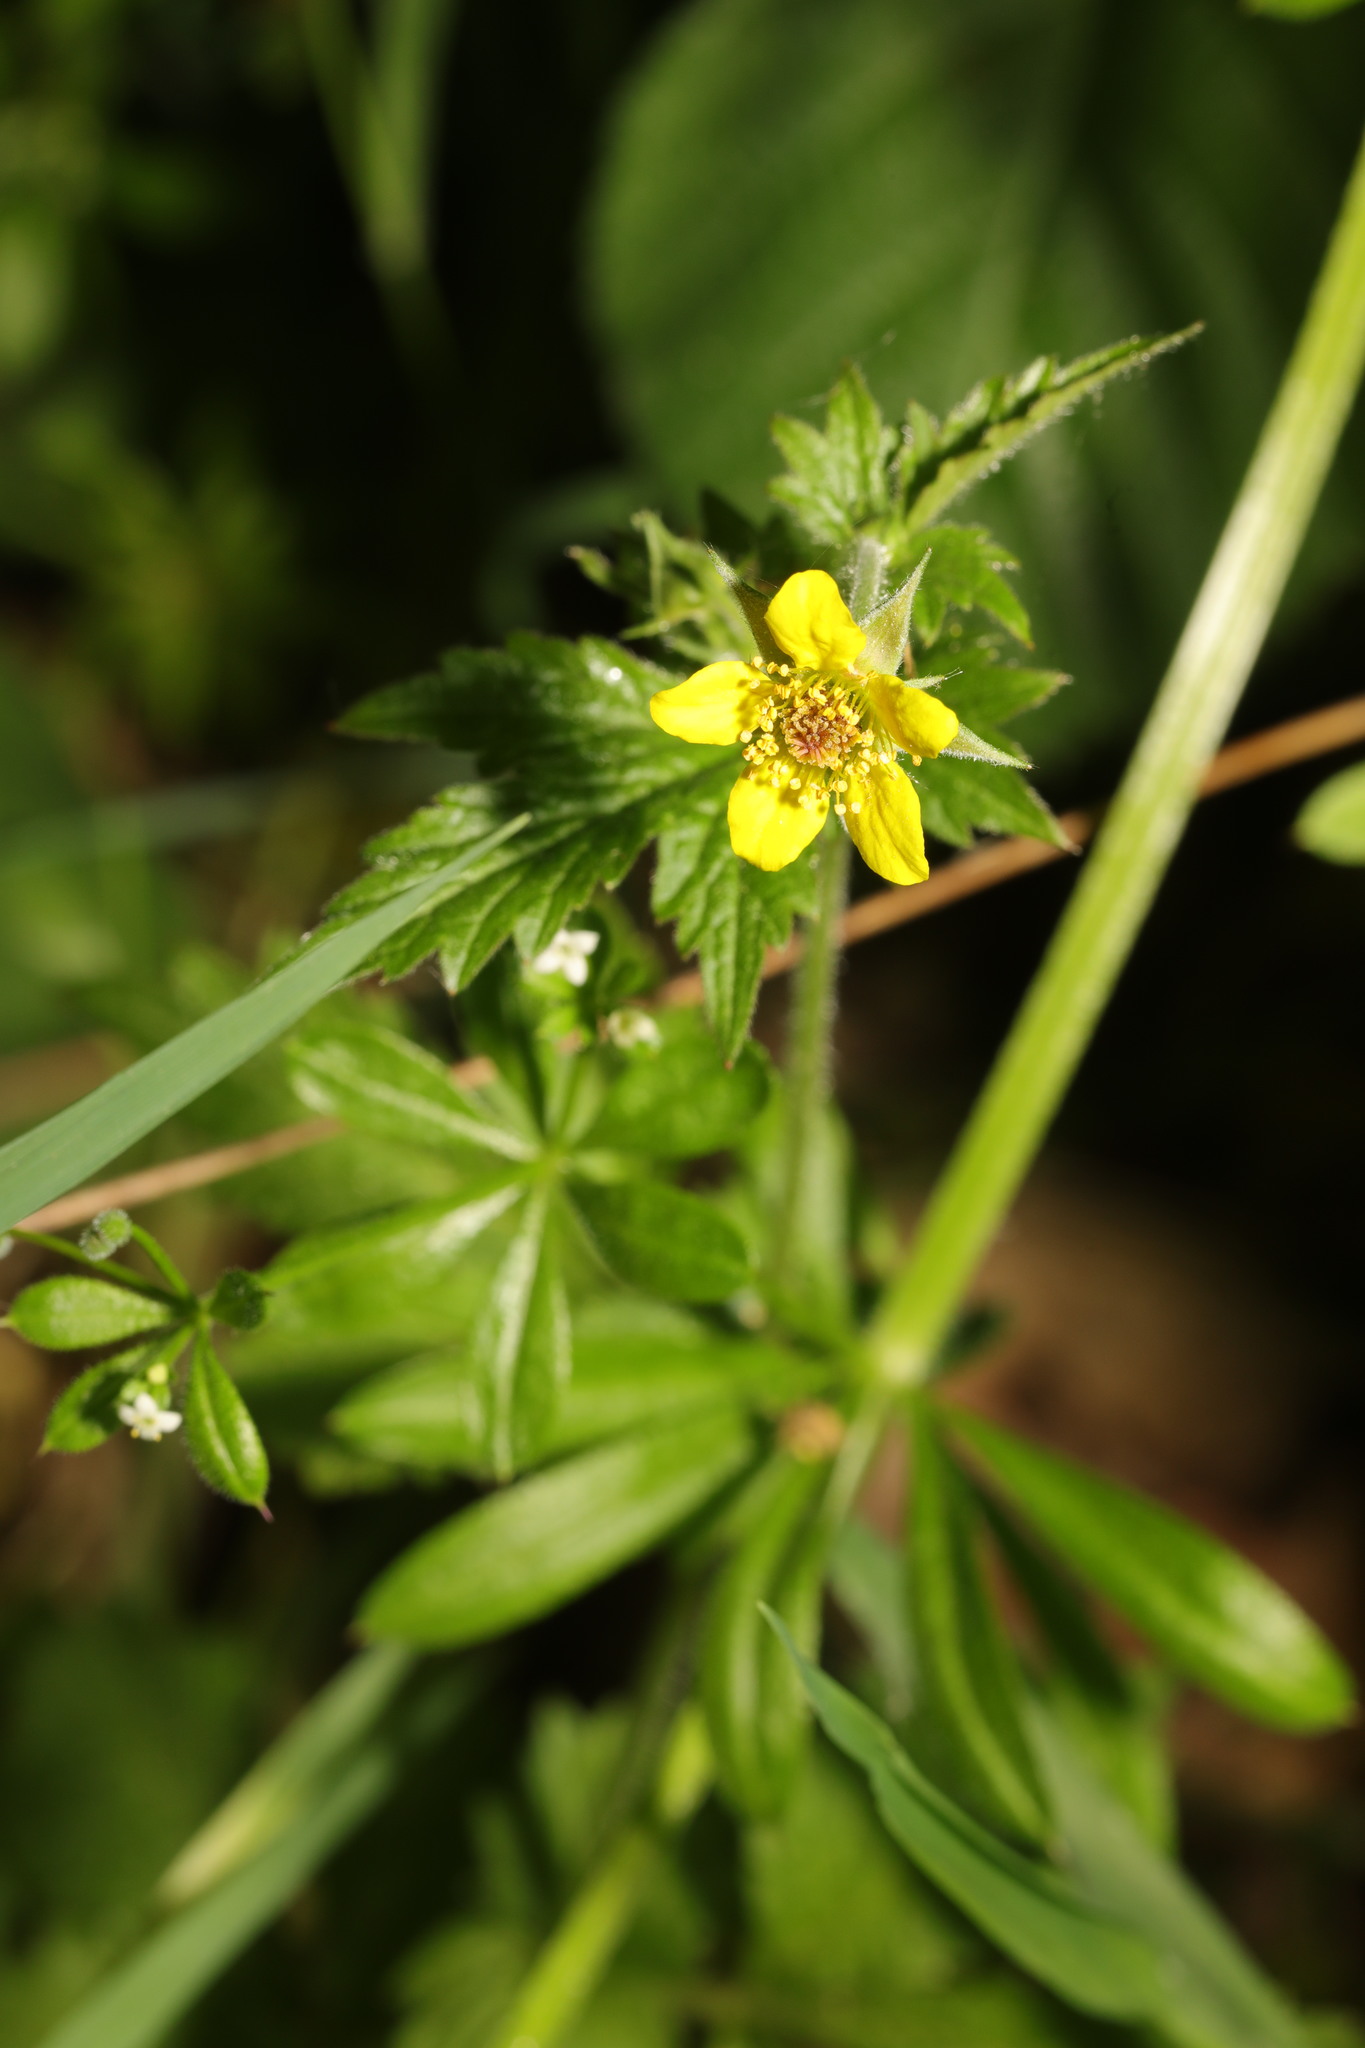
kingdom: Plantae
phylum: Tracheophyta
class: Magnoliopsida
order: Rosales
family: Rosaceae
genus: Geum
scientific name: Geum urbanum
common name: Wood avens
